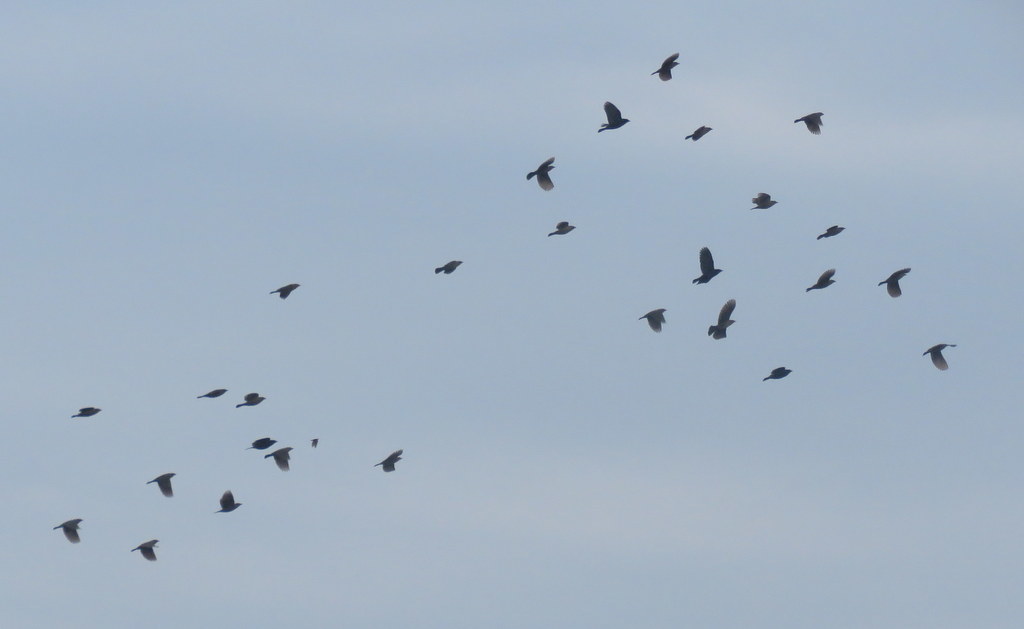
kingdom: Animalia
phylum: Chordata
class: Aves
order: Passeriformes
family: Icteridae
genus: Chrysomus
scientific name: Chrysomus ruficapillus
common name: Chestnut-capped blackbird
